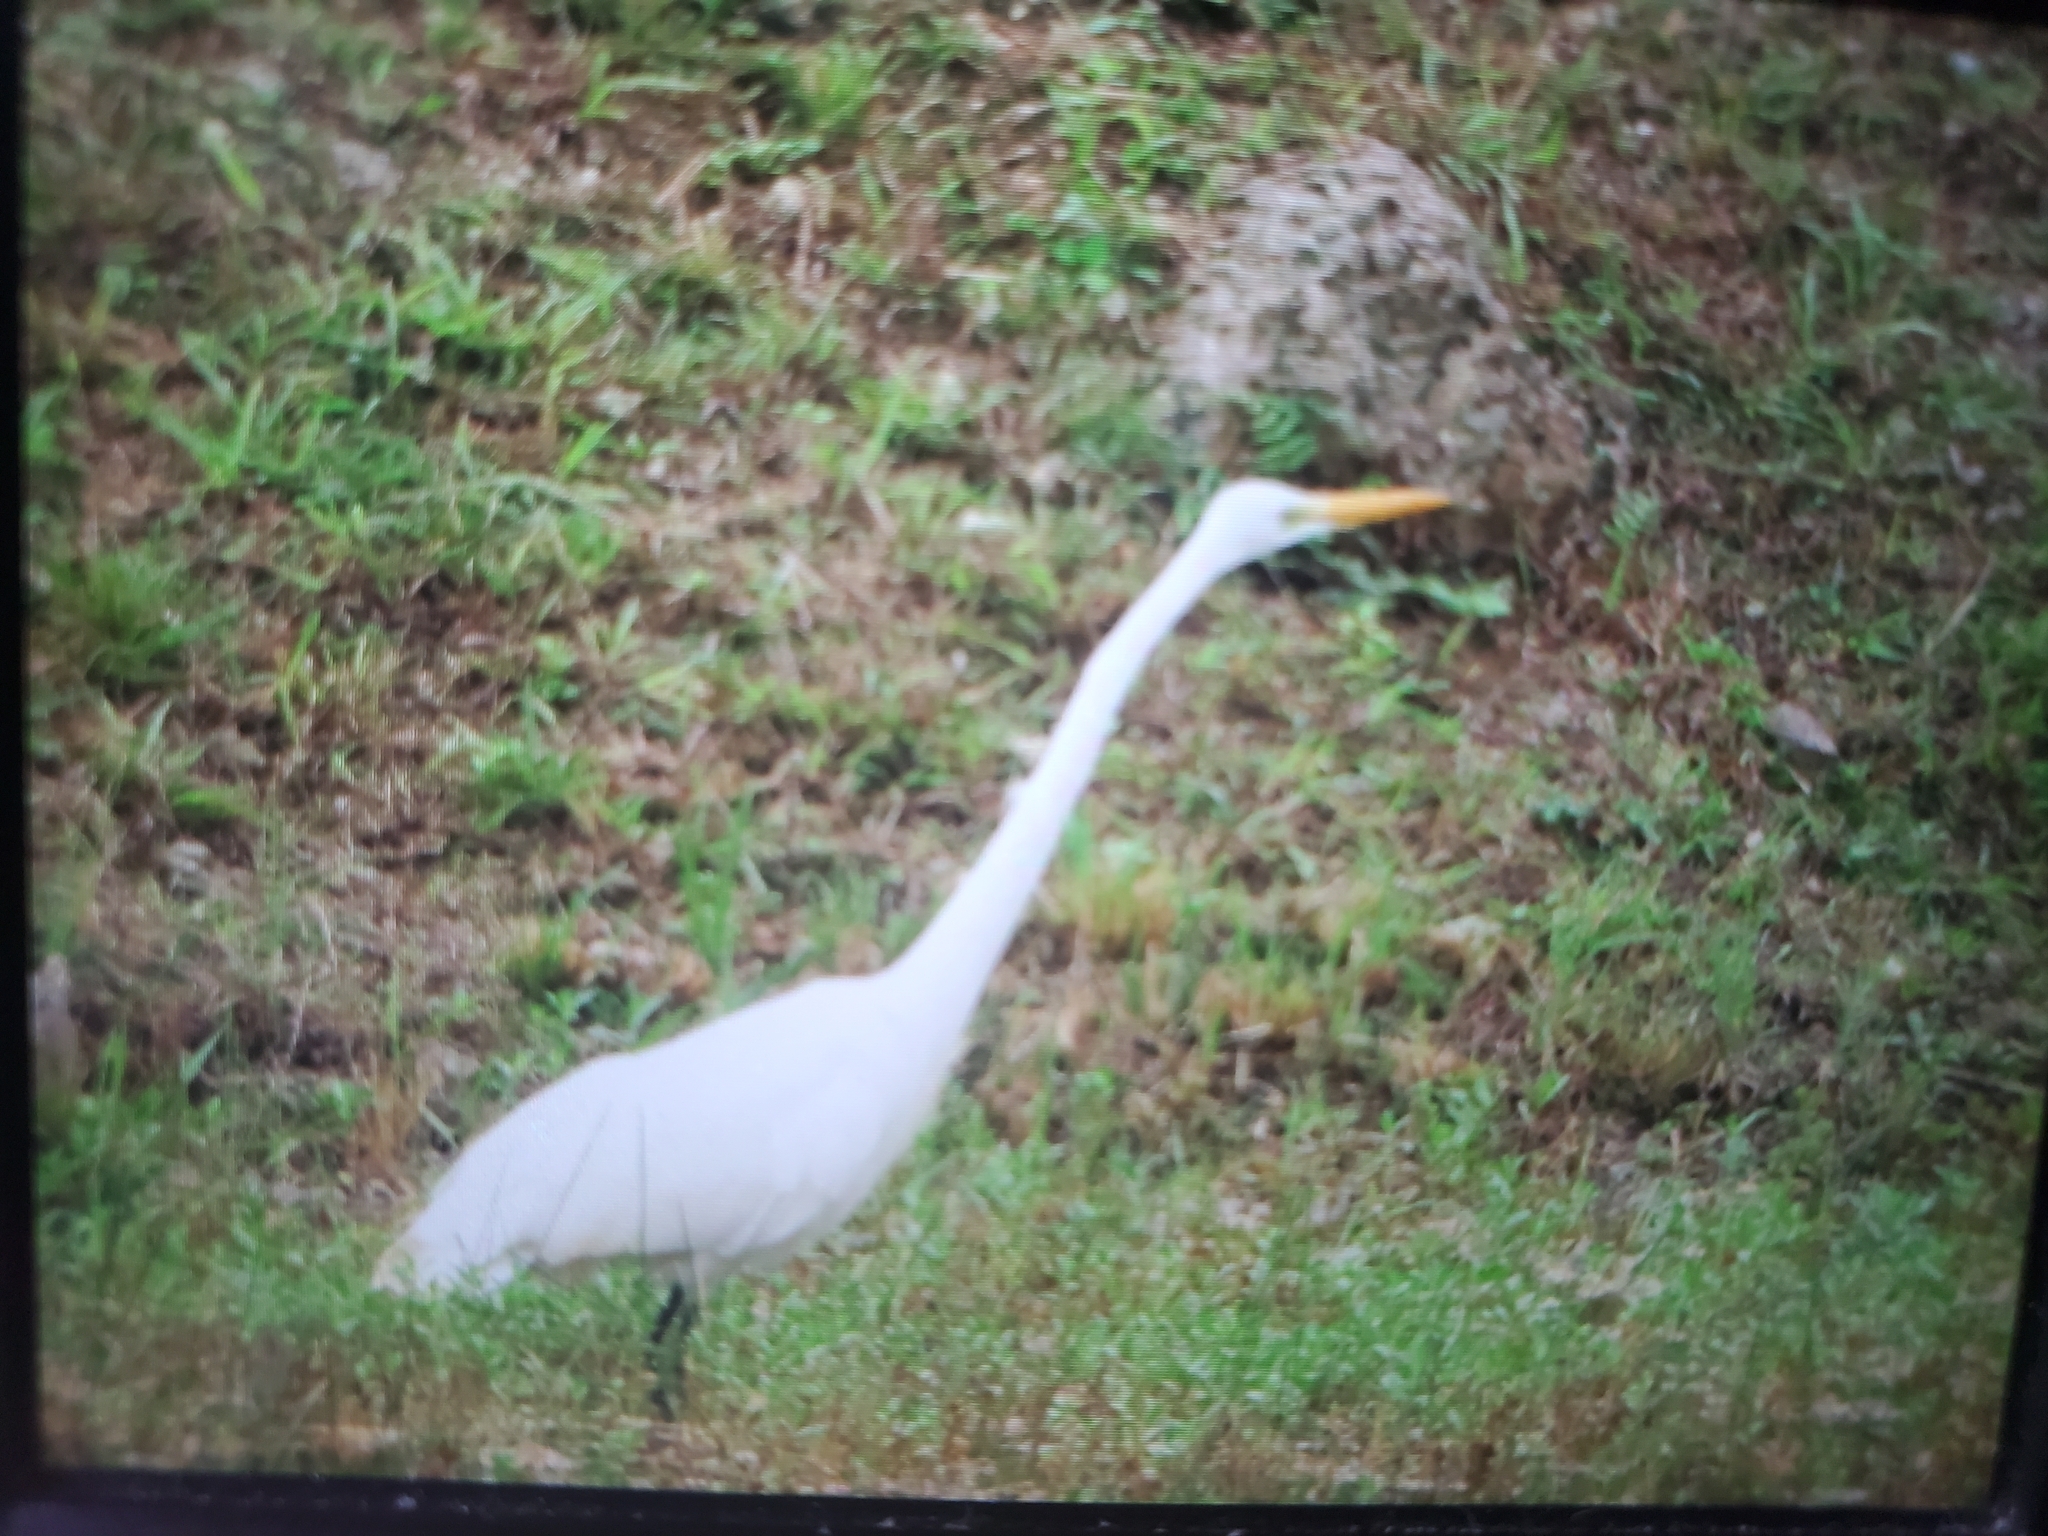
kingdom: Animalia
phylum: Chordata
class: Aves
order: Pelecaniformes
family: Ardeidae
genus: Ardea
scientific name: Ardea alba
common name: Great egret
